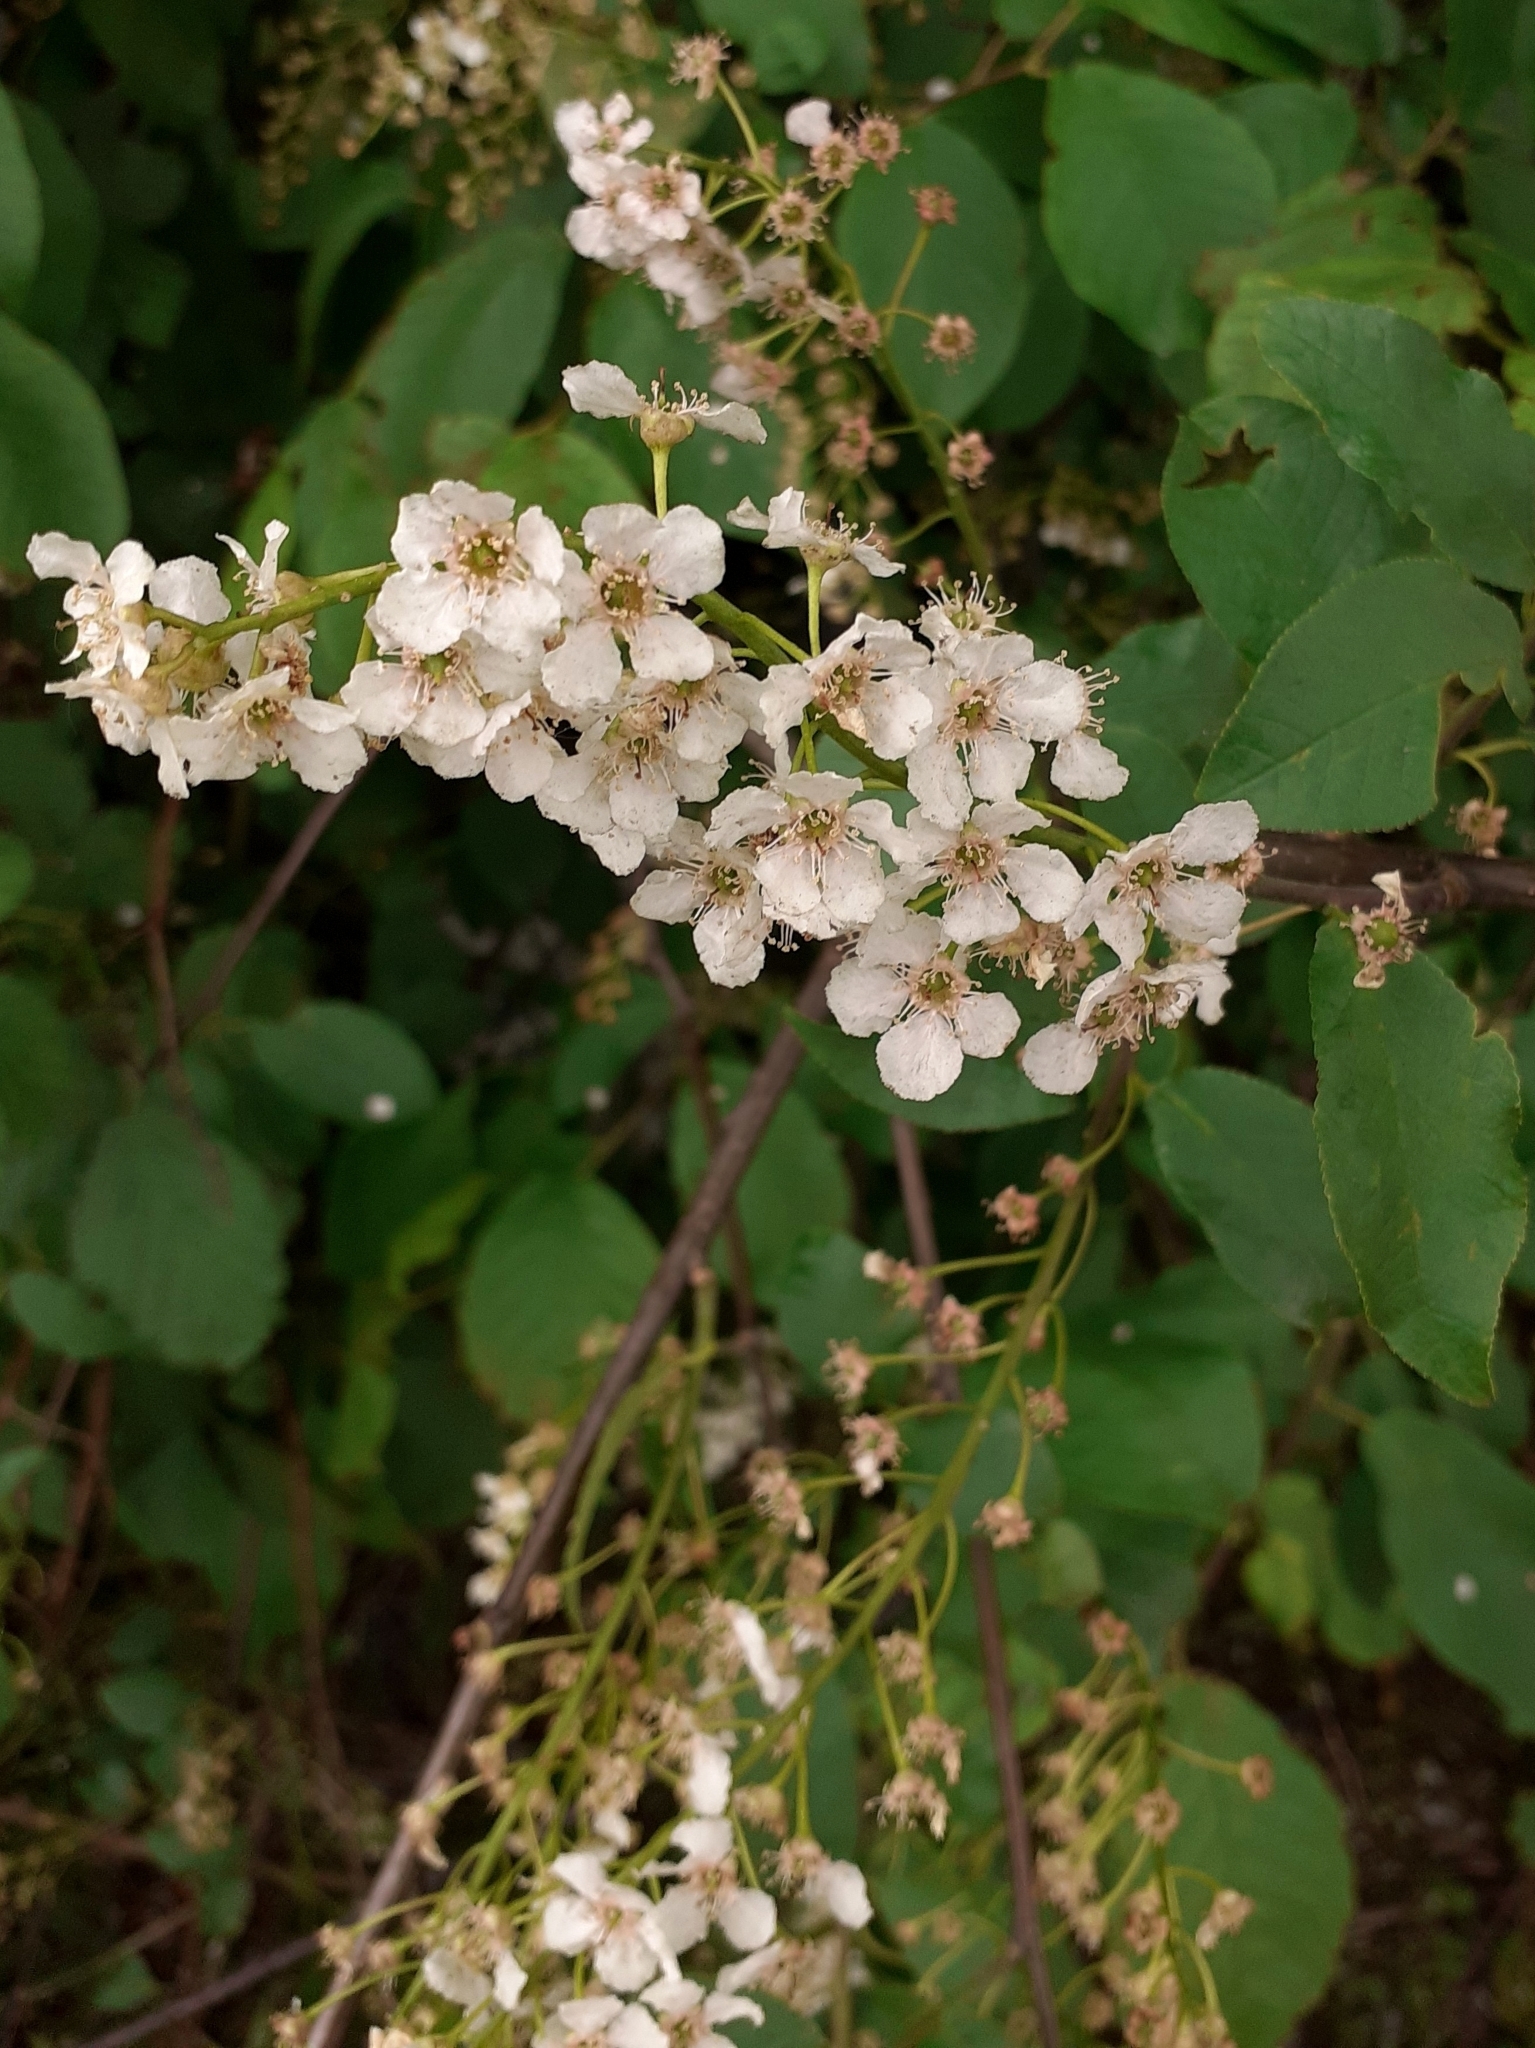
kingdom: Plantae
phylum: Tracheophyta
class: Magnoliopsida
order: Rosales
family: Rosaceae
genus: Prunus
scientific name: Prunus padus
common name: Bird cherry
